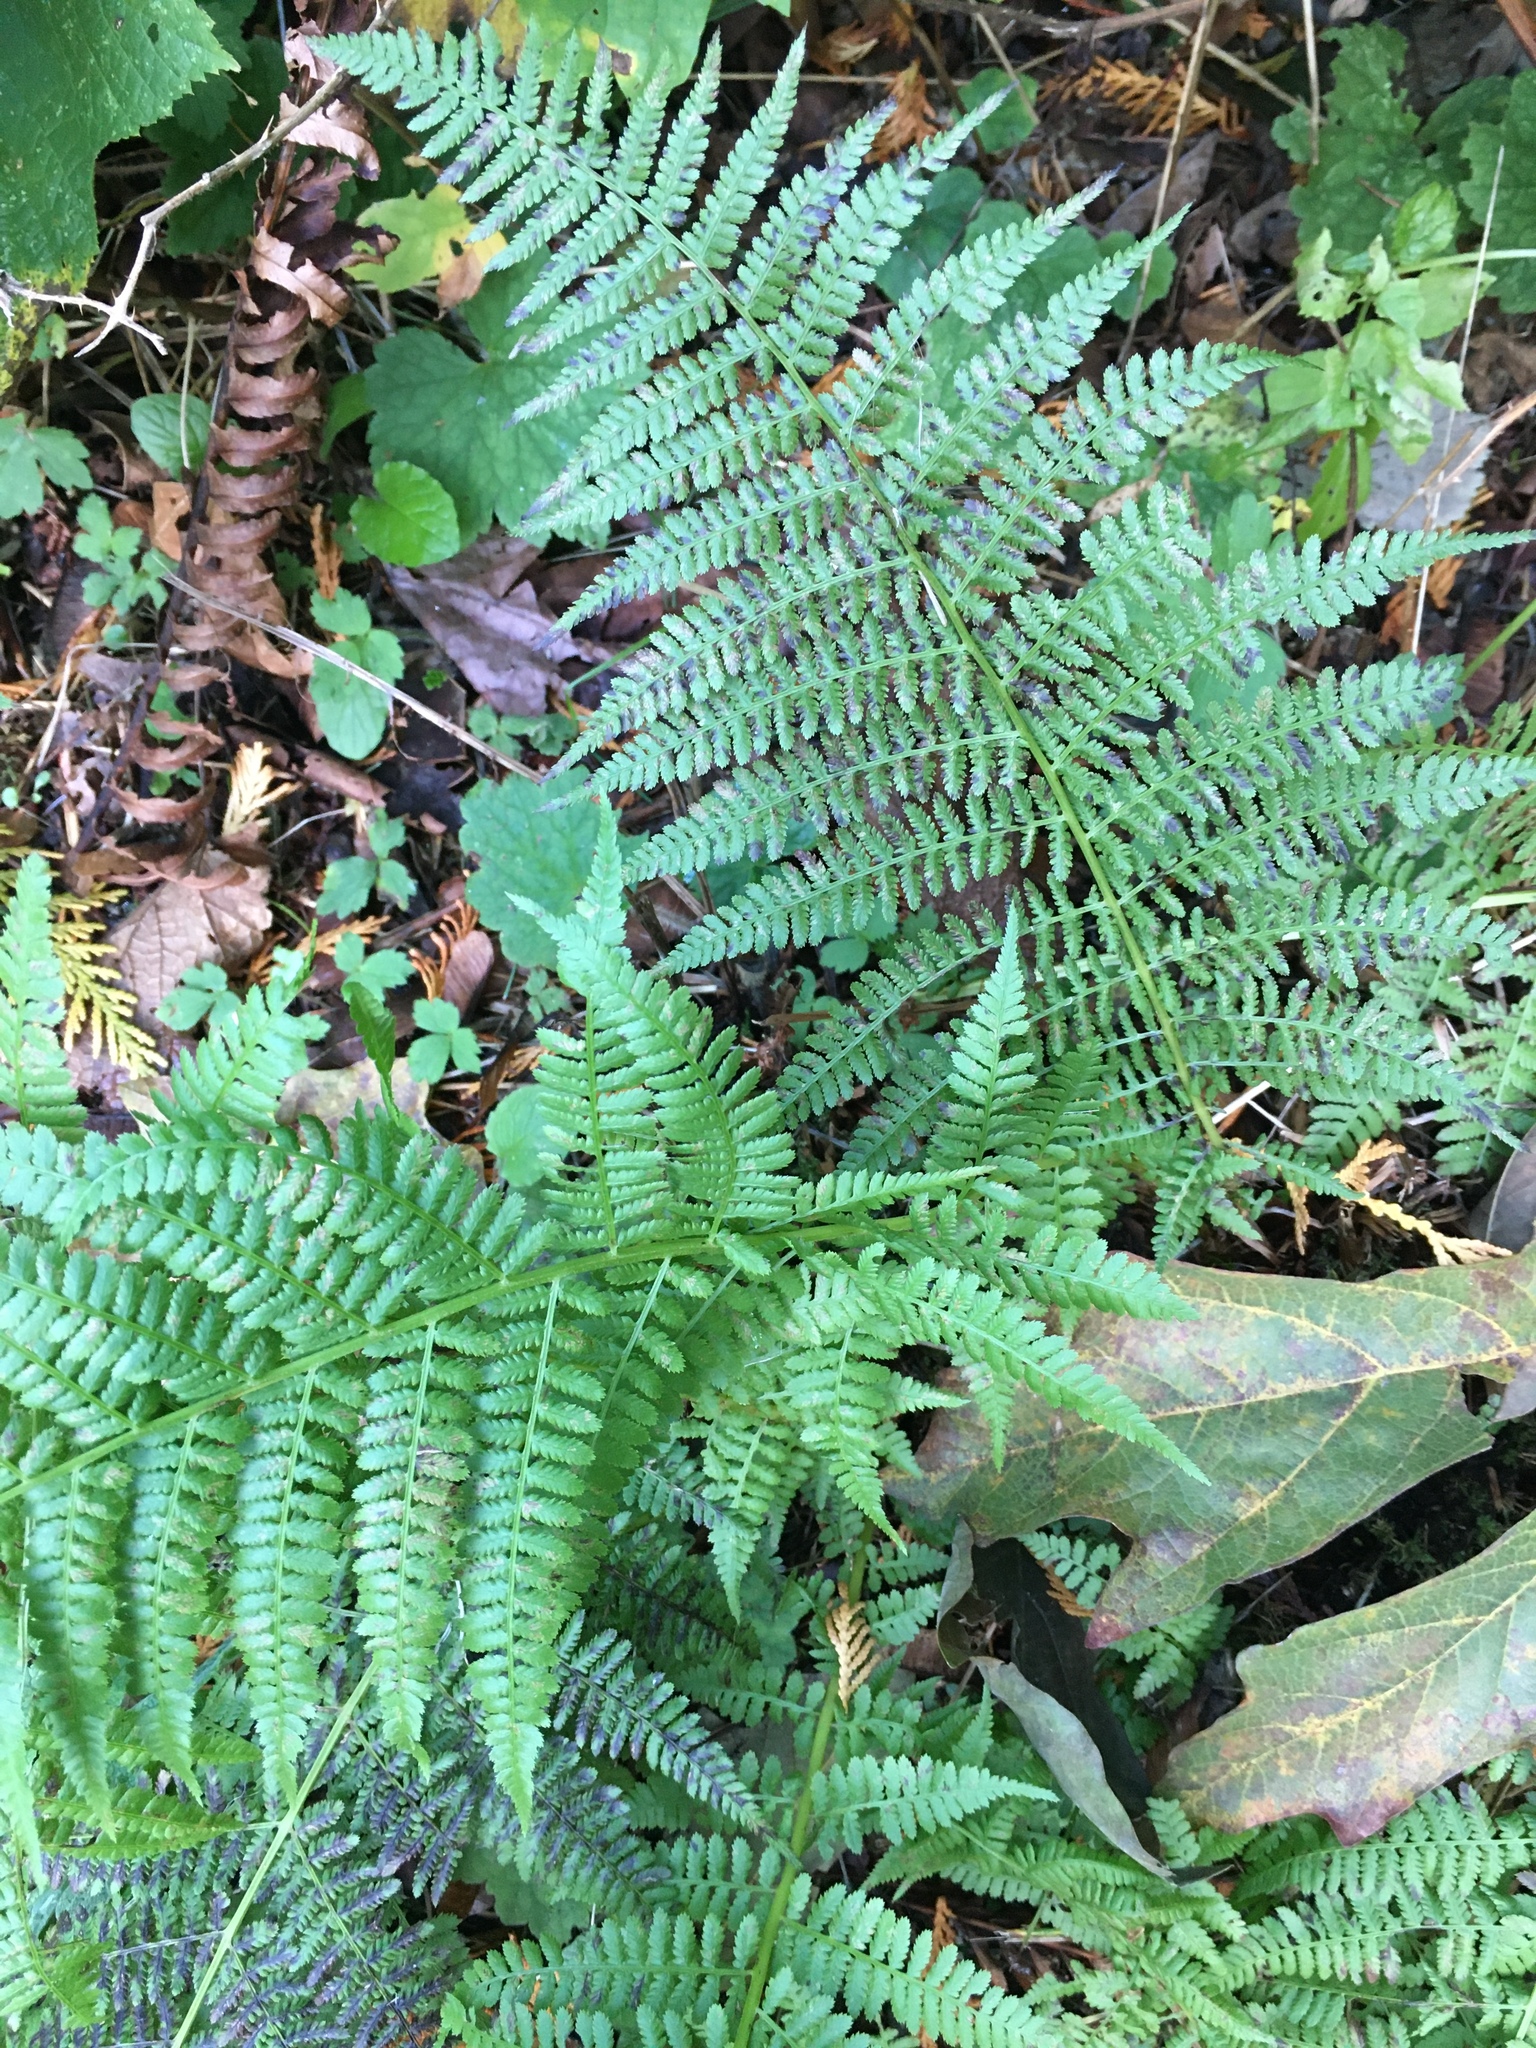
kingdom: Plantae
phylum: Tracheophyta
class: Polypodiopsida
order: Polypodiales
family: Athyriaceae
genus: Athyrium
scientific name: Athyrium filix-femina
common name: Lady fern
